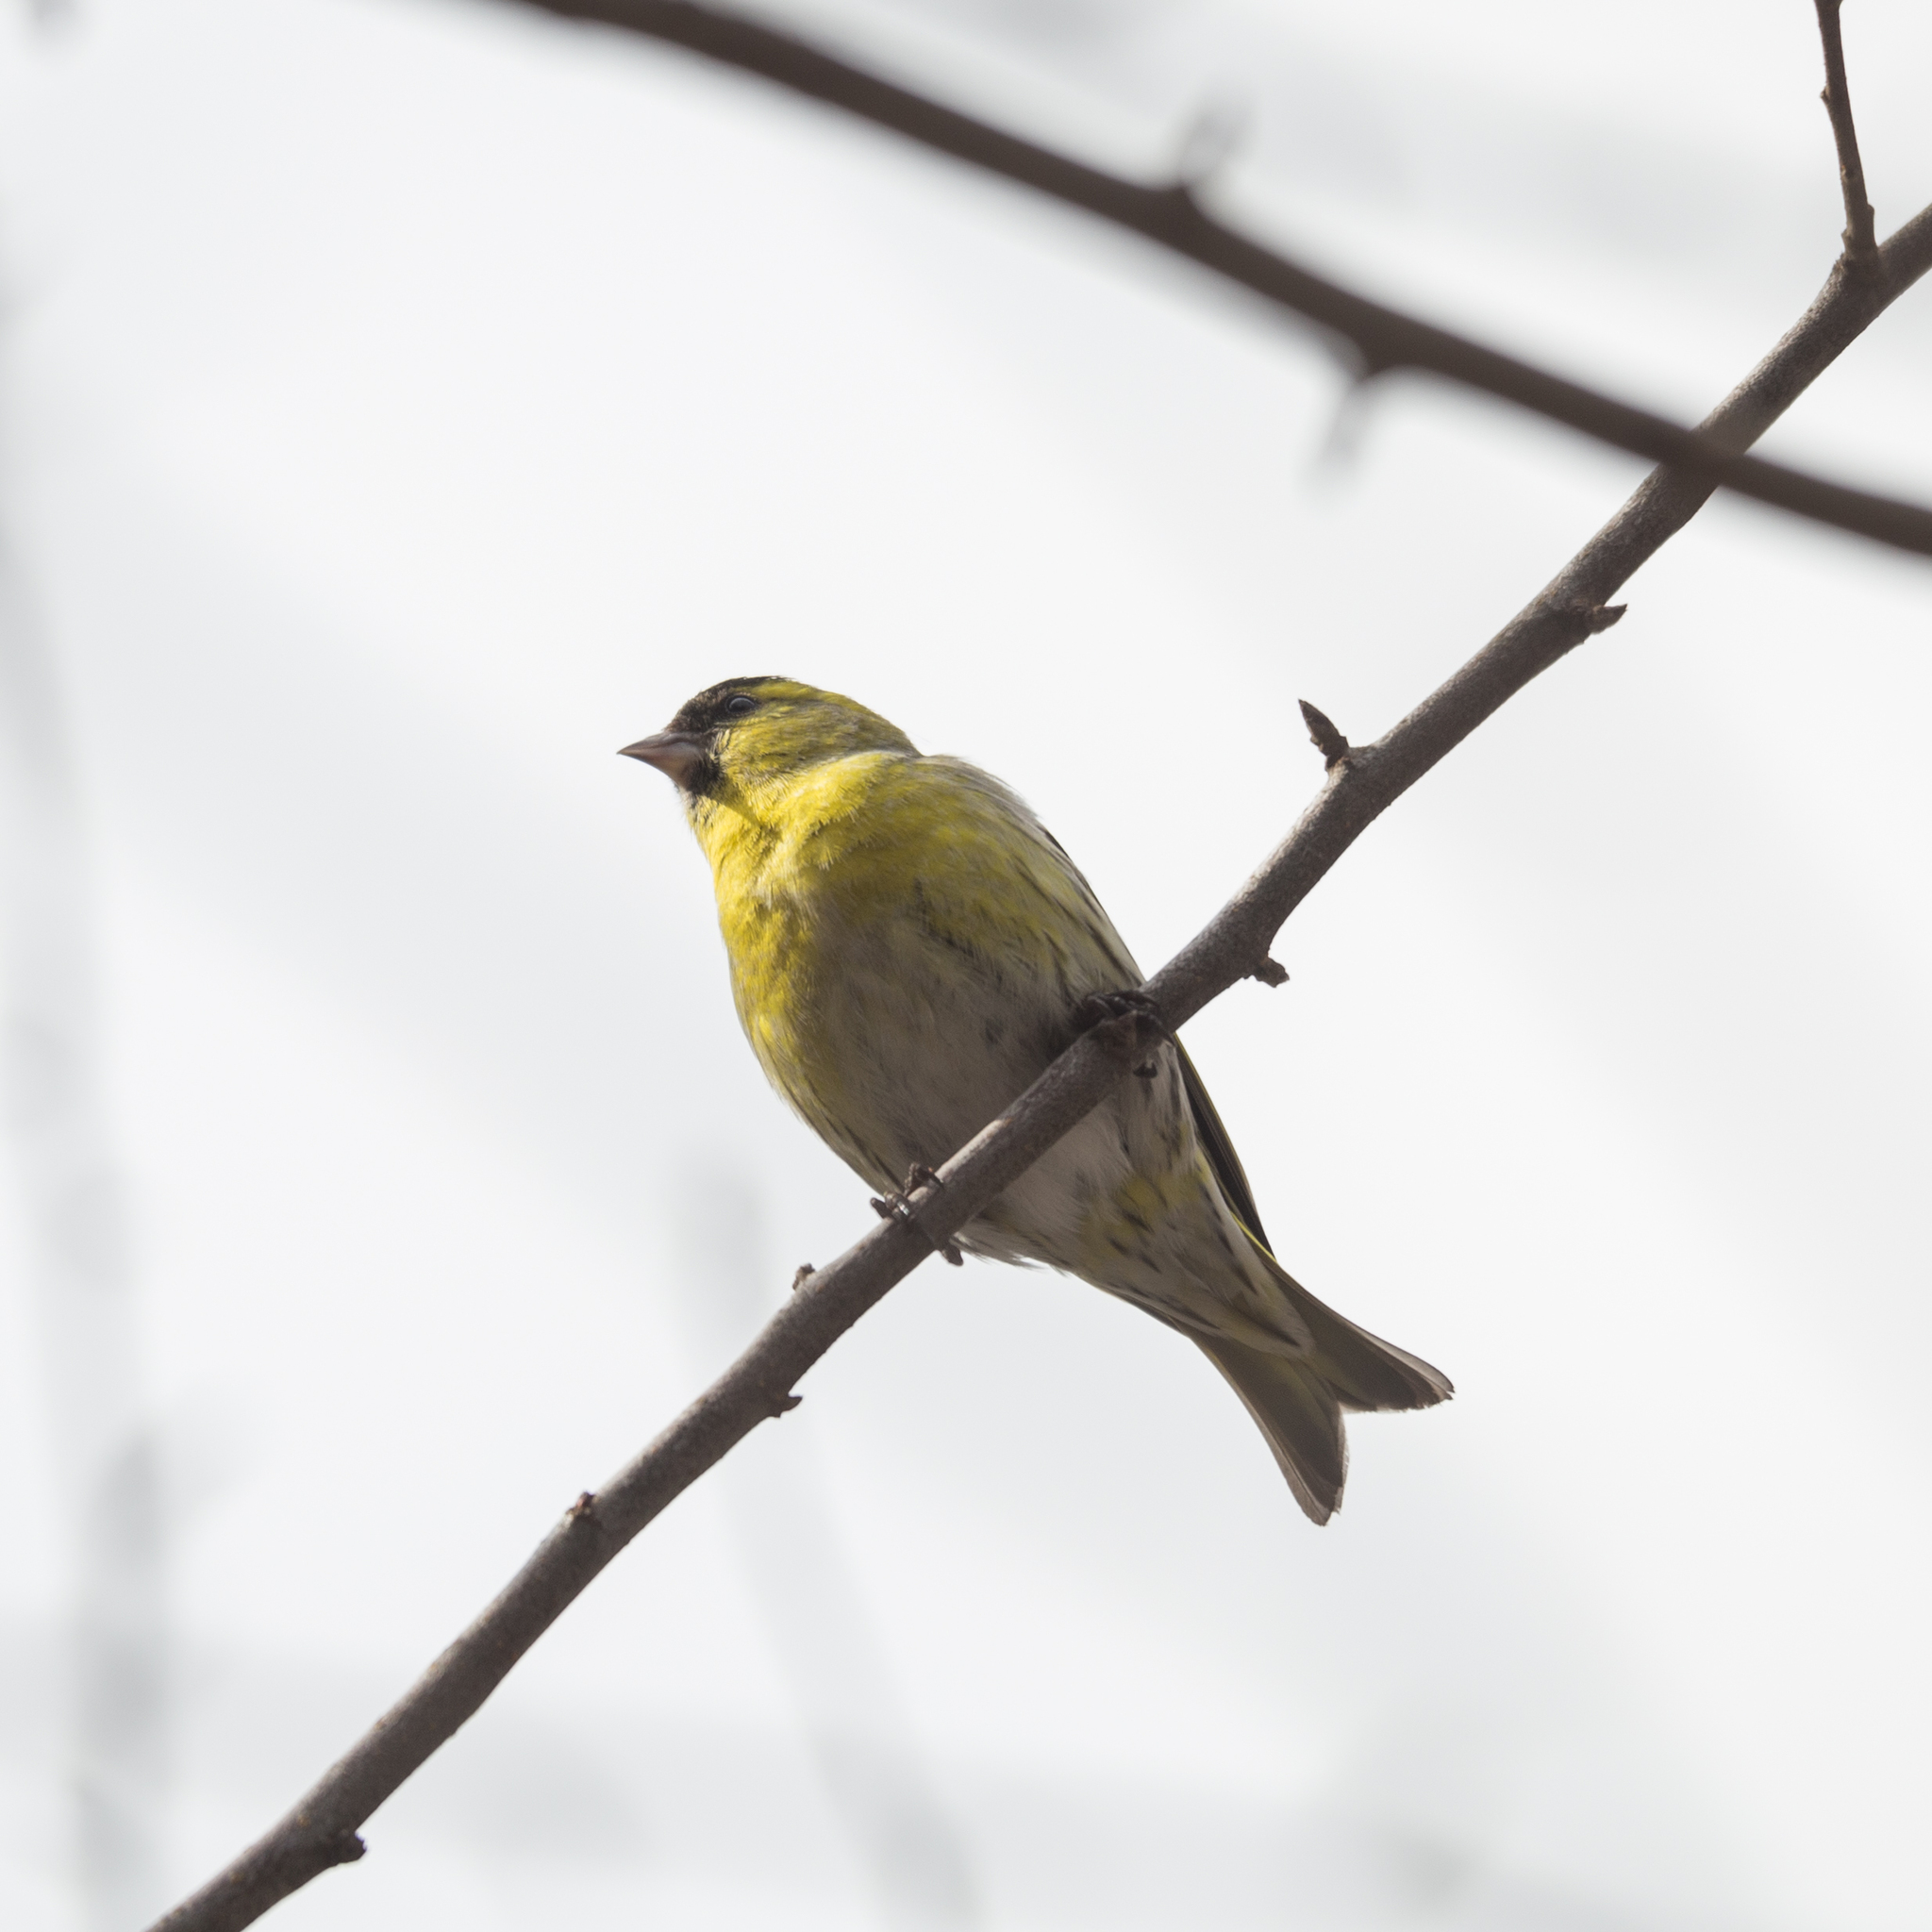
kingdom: Animalia
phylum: Chordata
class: Aves
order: Passeriformes
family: Fringillidae
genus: Spinus
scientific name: Spinus spinus
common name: Eurasian siskin
